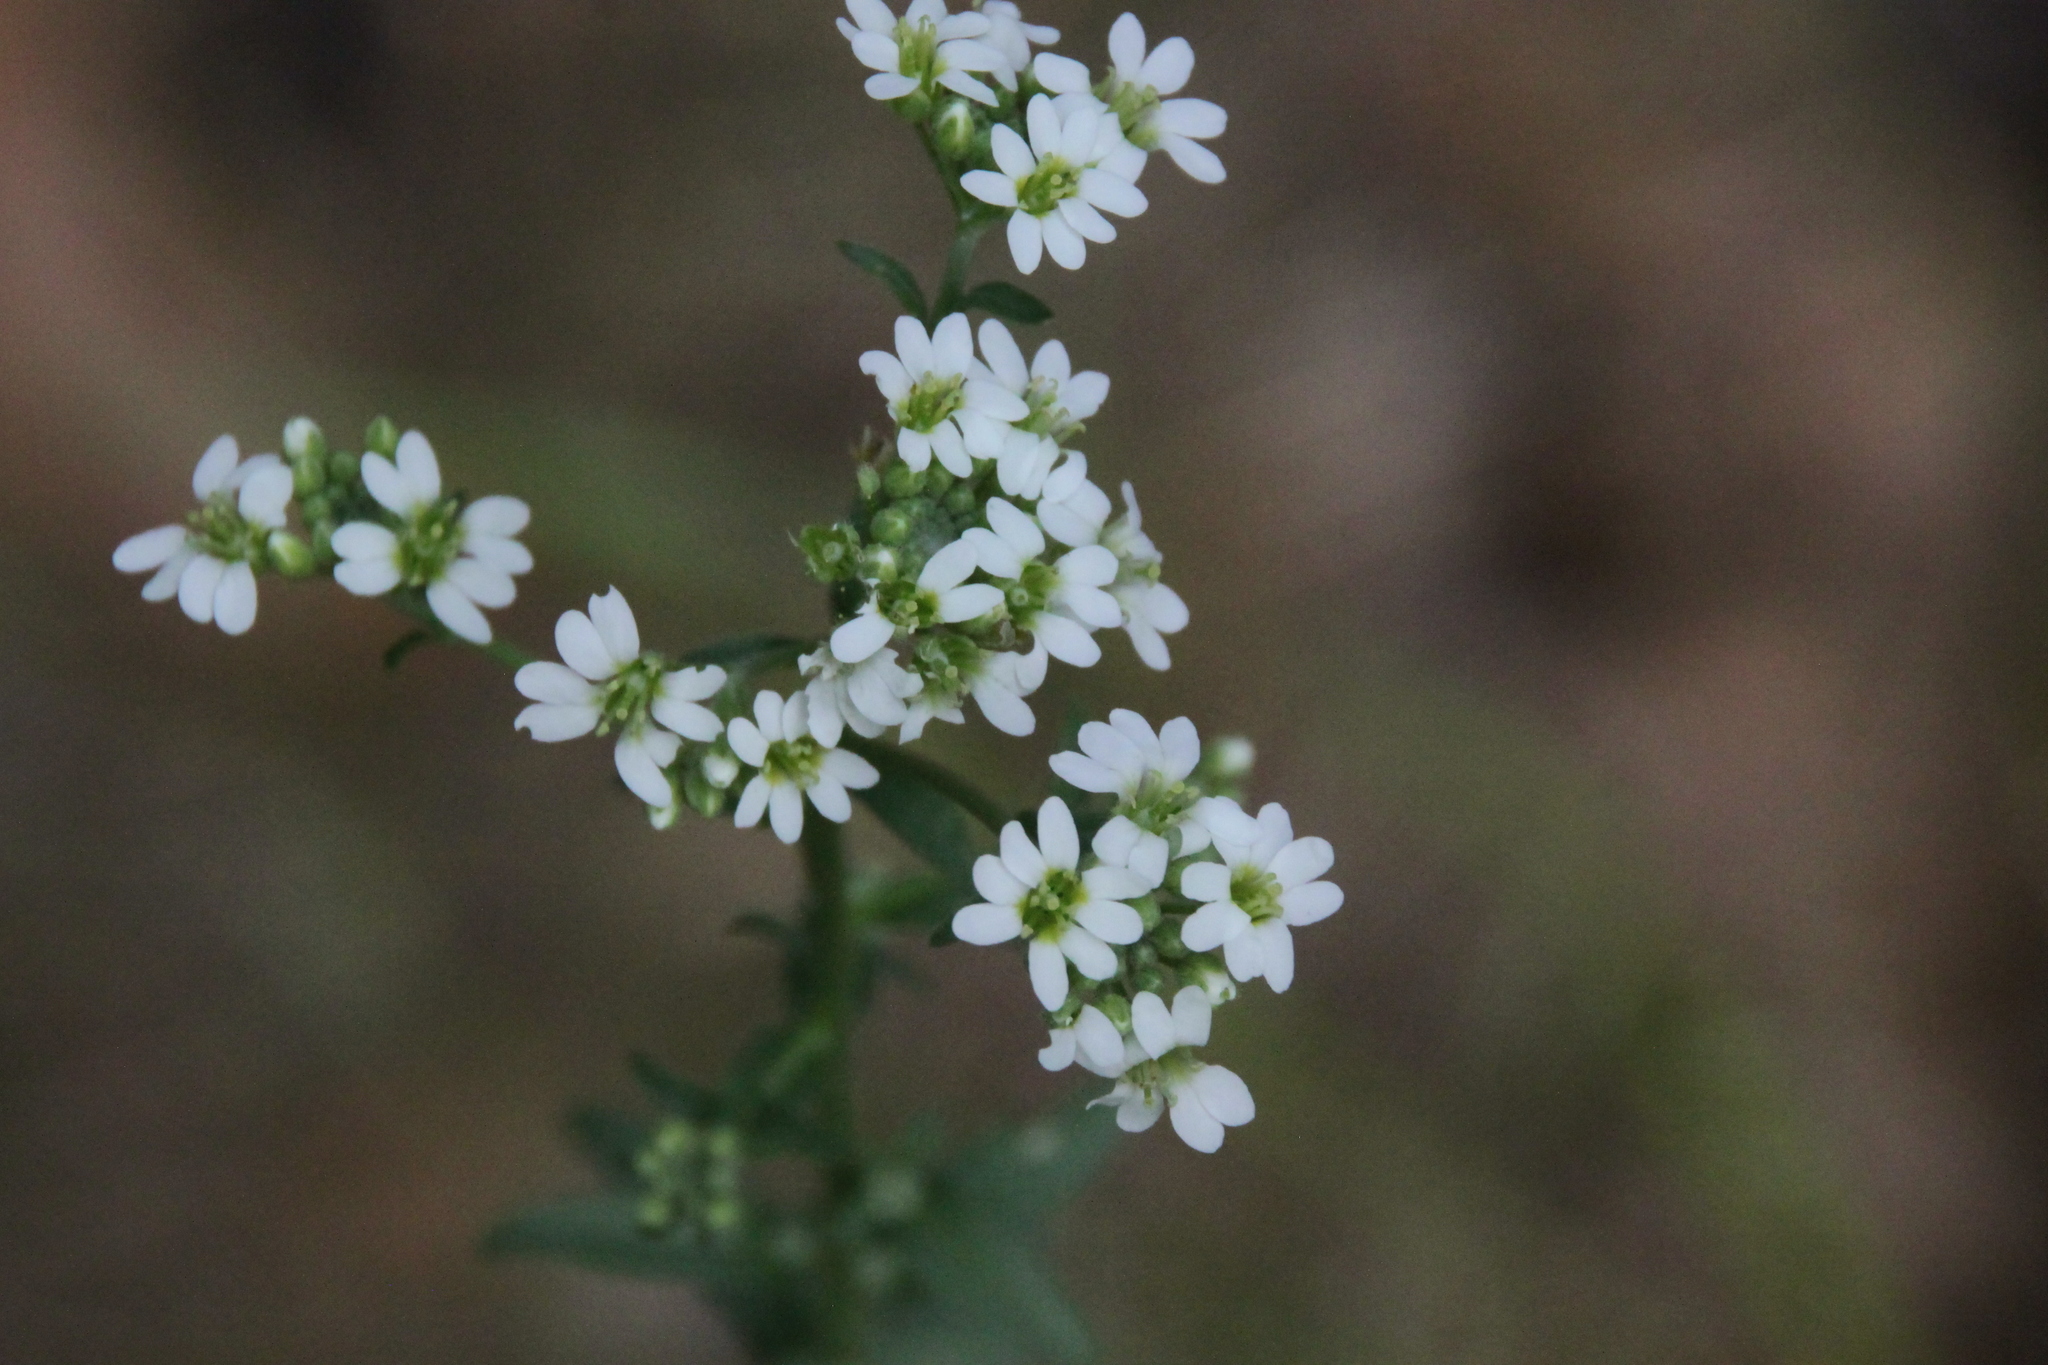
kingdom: Plantae
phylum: Tracheophyta
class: Magnoliopsida
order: Brassicales
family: Brassicaceae
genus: Berteroa
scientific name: Berteroa incana
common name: Hoary alison
